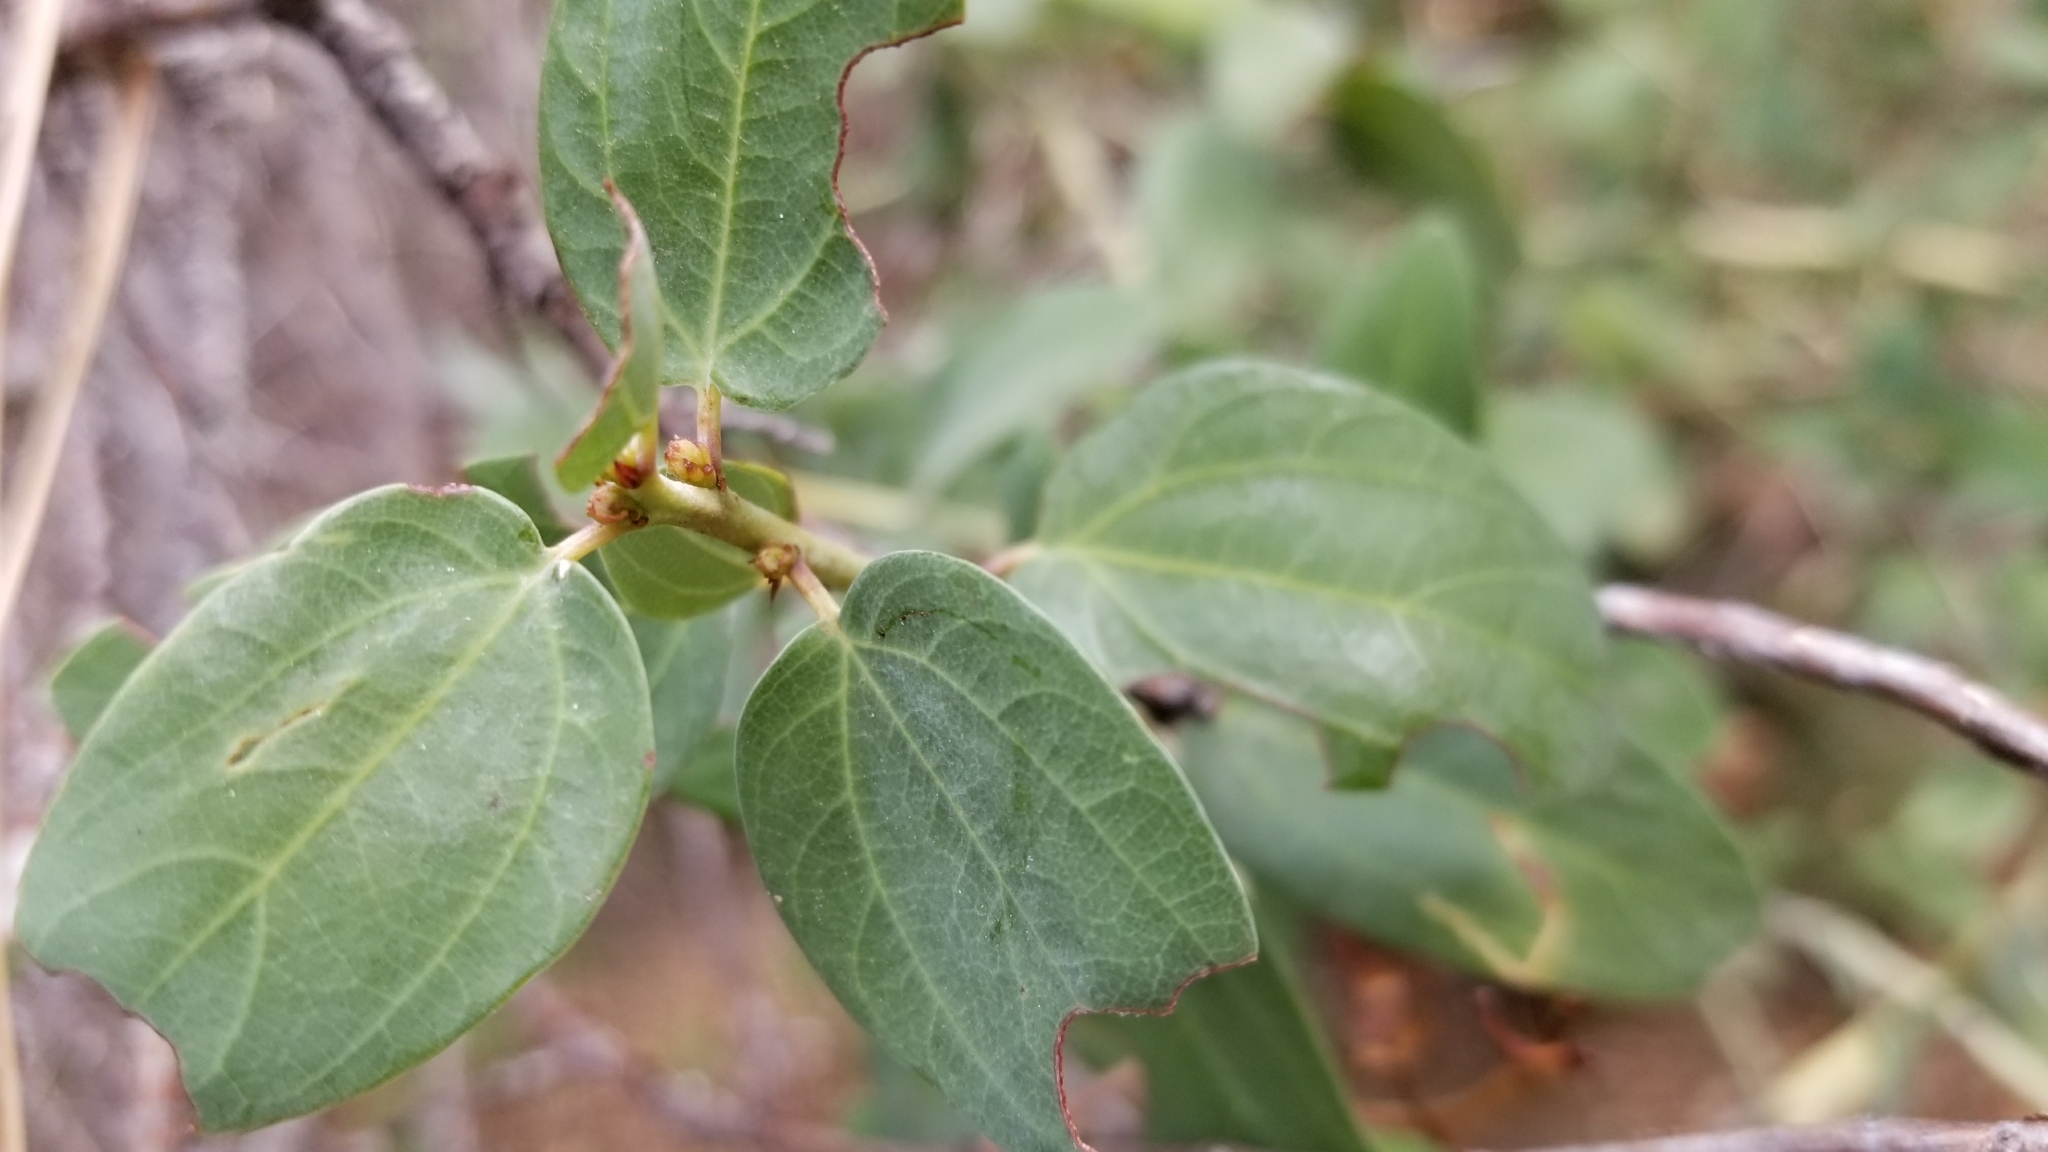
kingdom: Plantae
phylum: Tracheophyta
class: Magnoliopsida
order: Rosales
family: Rhamnaceae
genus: Ceanothus
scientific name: Ceanothus leucodermis
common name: Chaparral whitethorn
